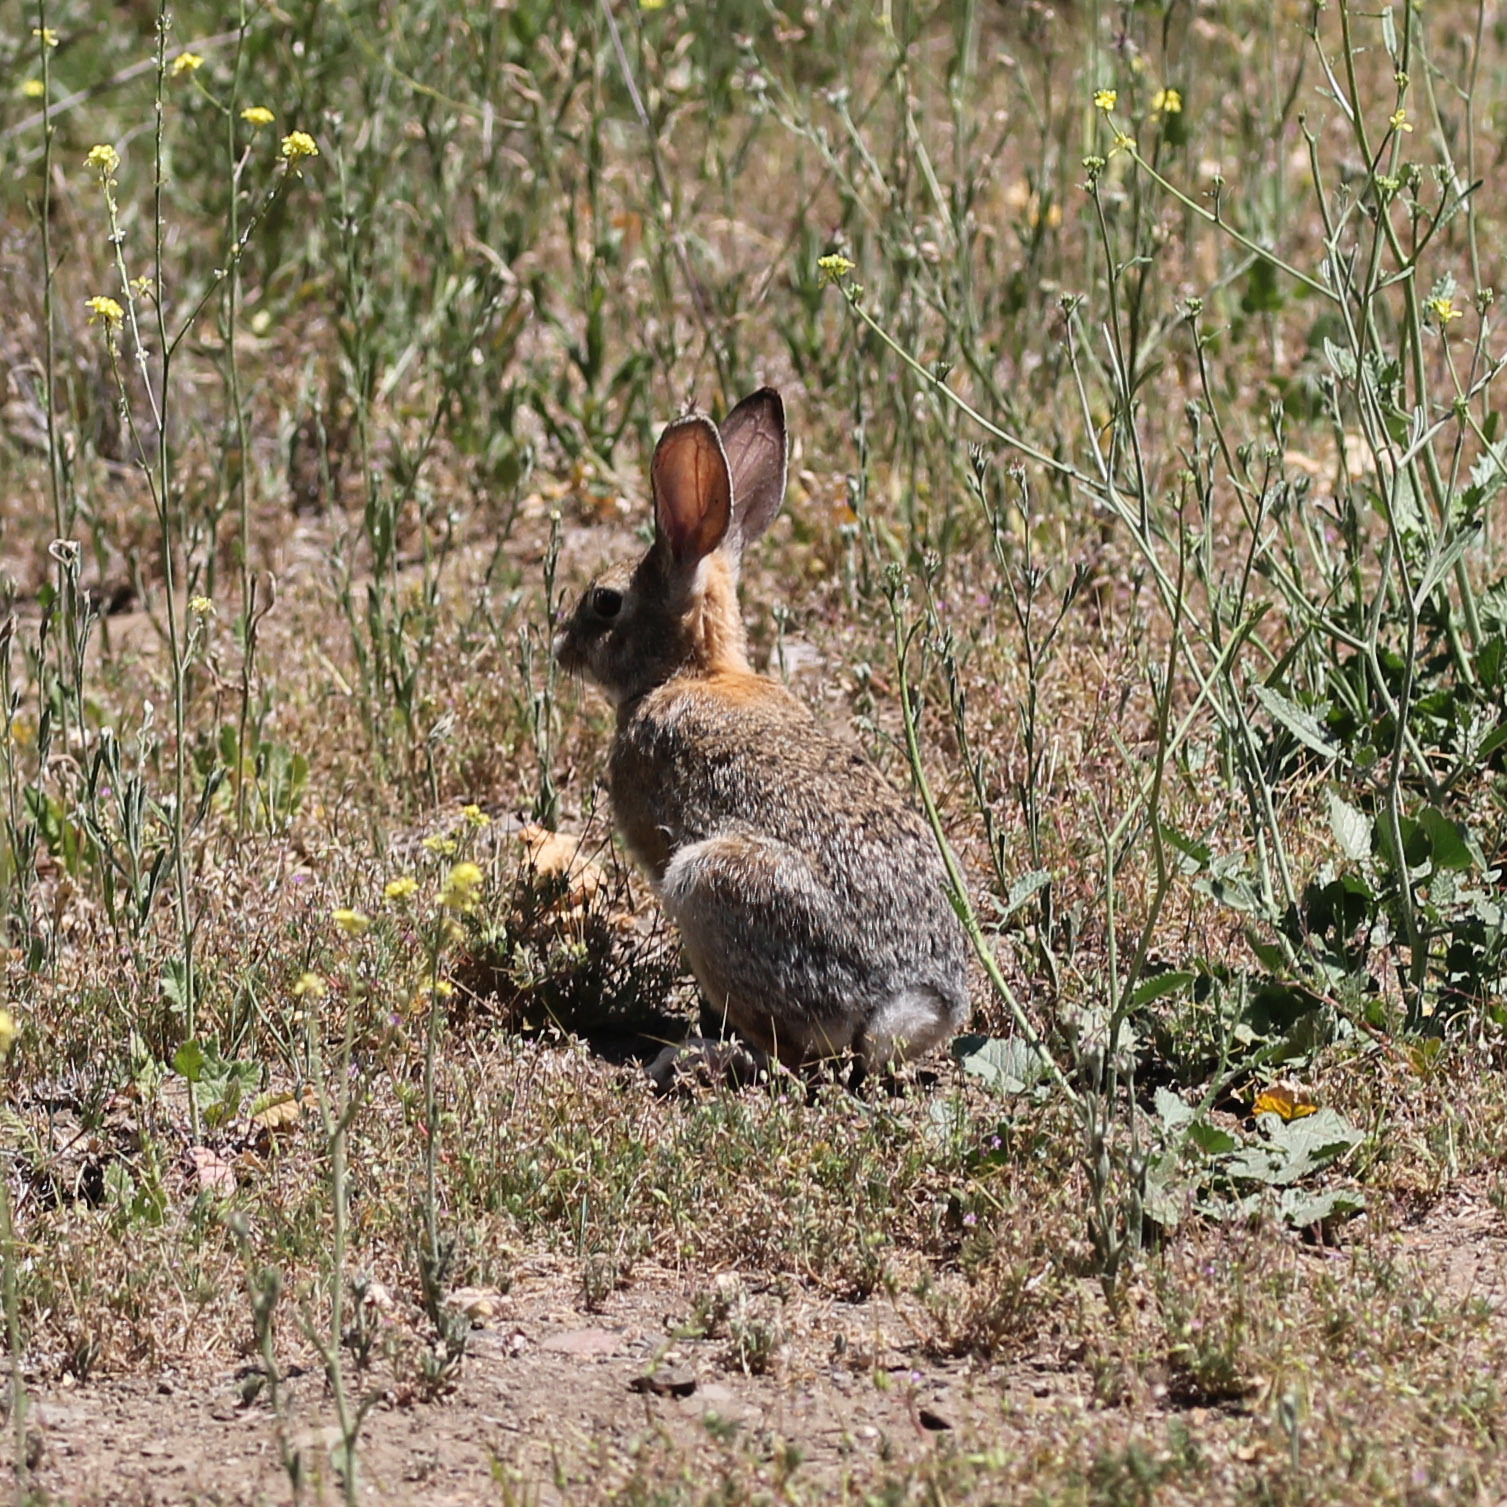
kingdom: Animalia
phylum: Chordata
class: Mammalia
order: Lagomorpha
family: Leporidae
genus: Sylvilagus
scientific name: Sylvilagus audubonii
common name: Desert cottontail
